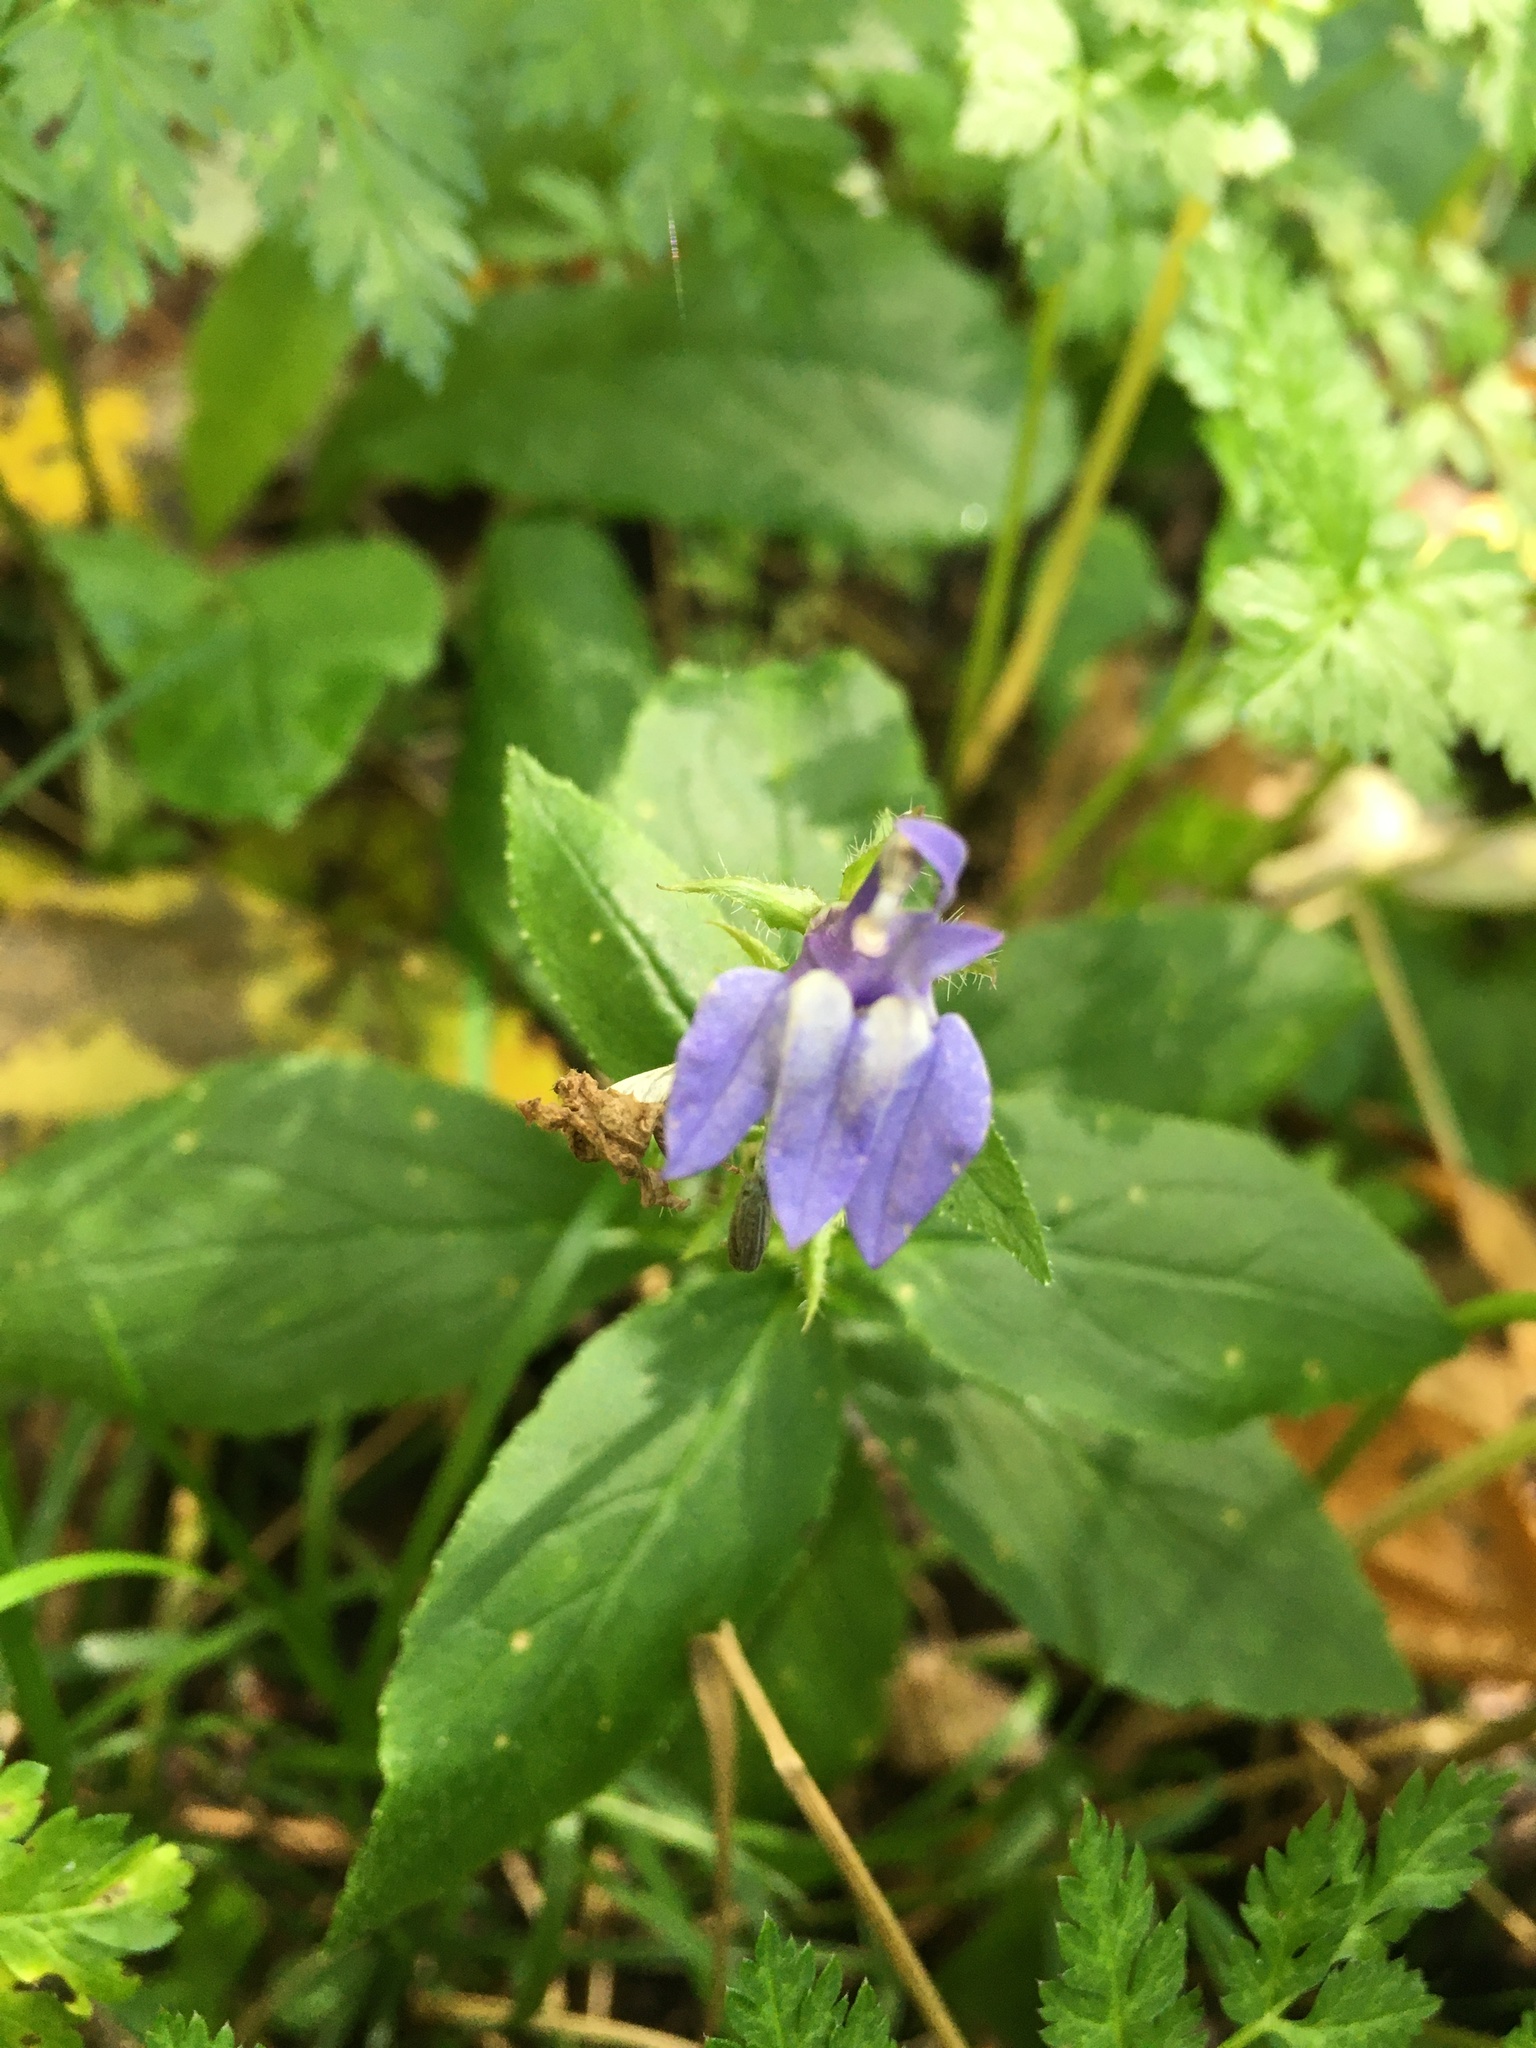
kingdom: Plantae
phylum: Tracheophyta
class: Magnoliopsida
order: Asterales
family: Campanulaceae
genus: Lobelia
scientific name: Lobelia siphilitica
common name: Great lobelia
